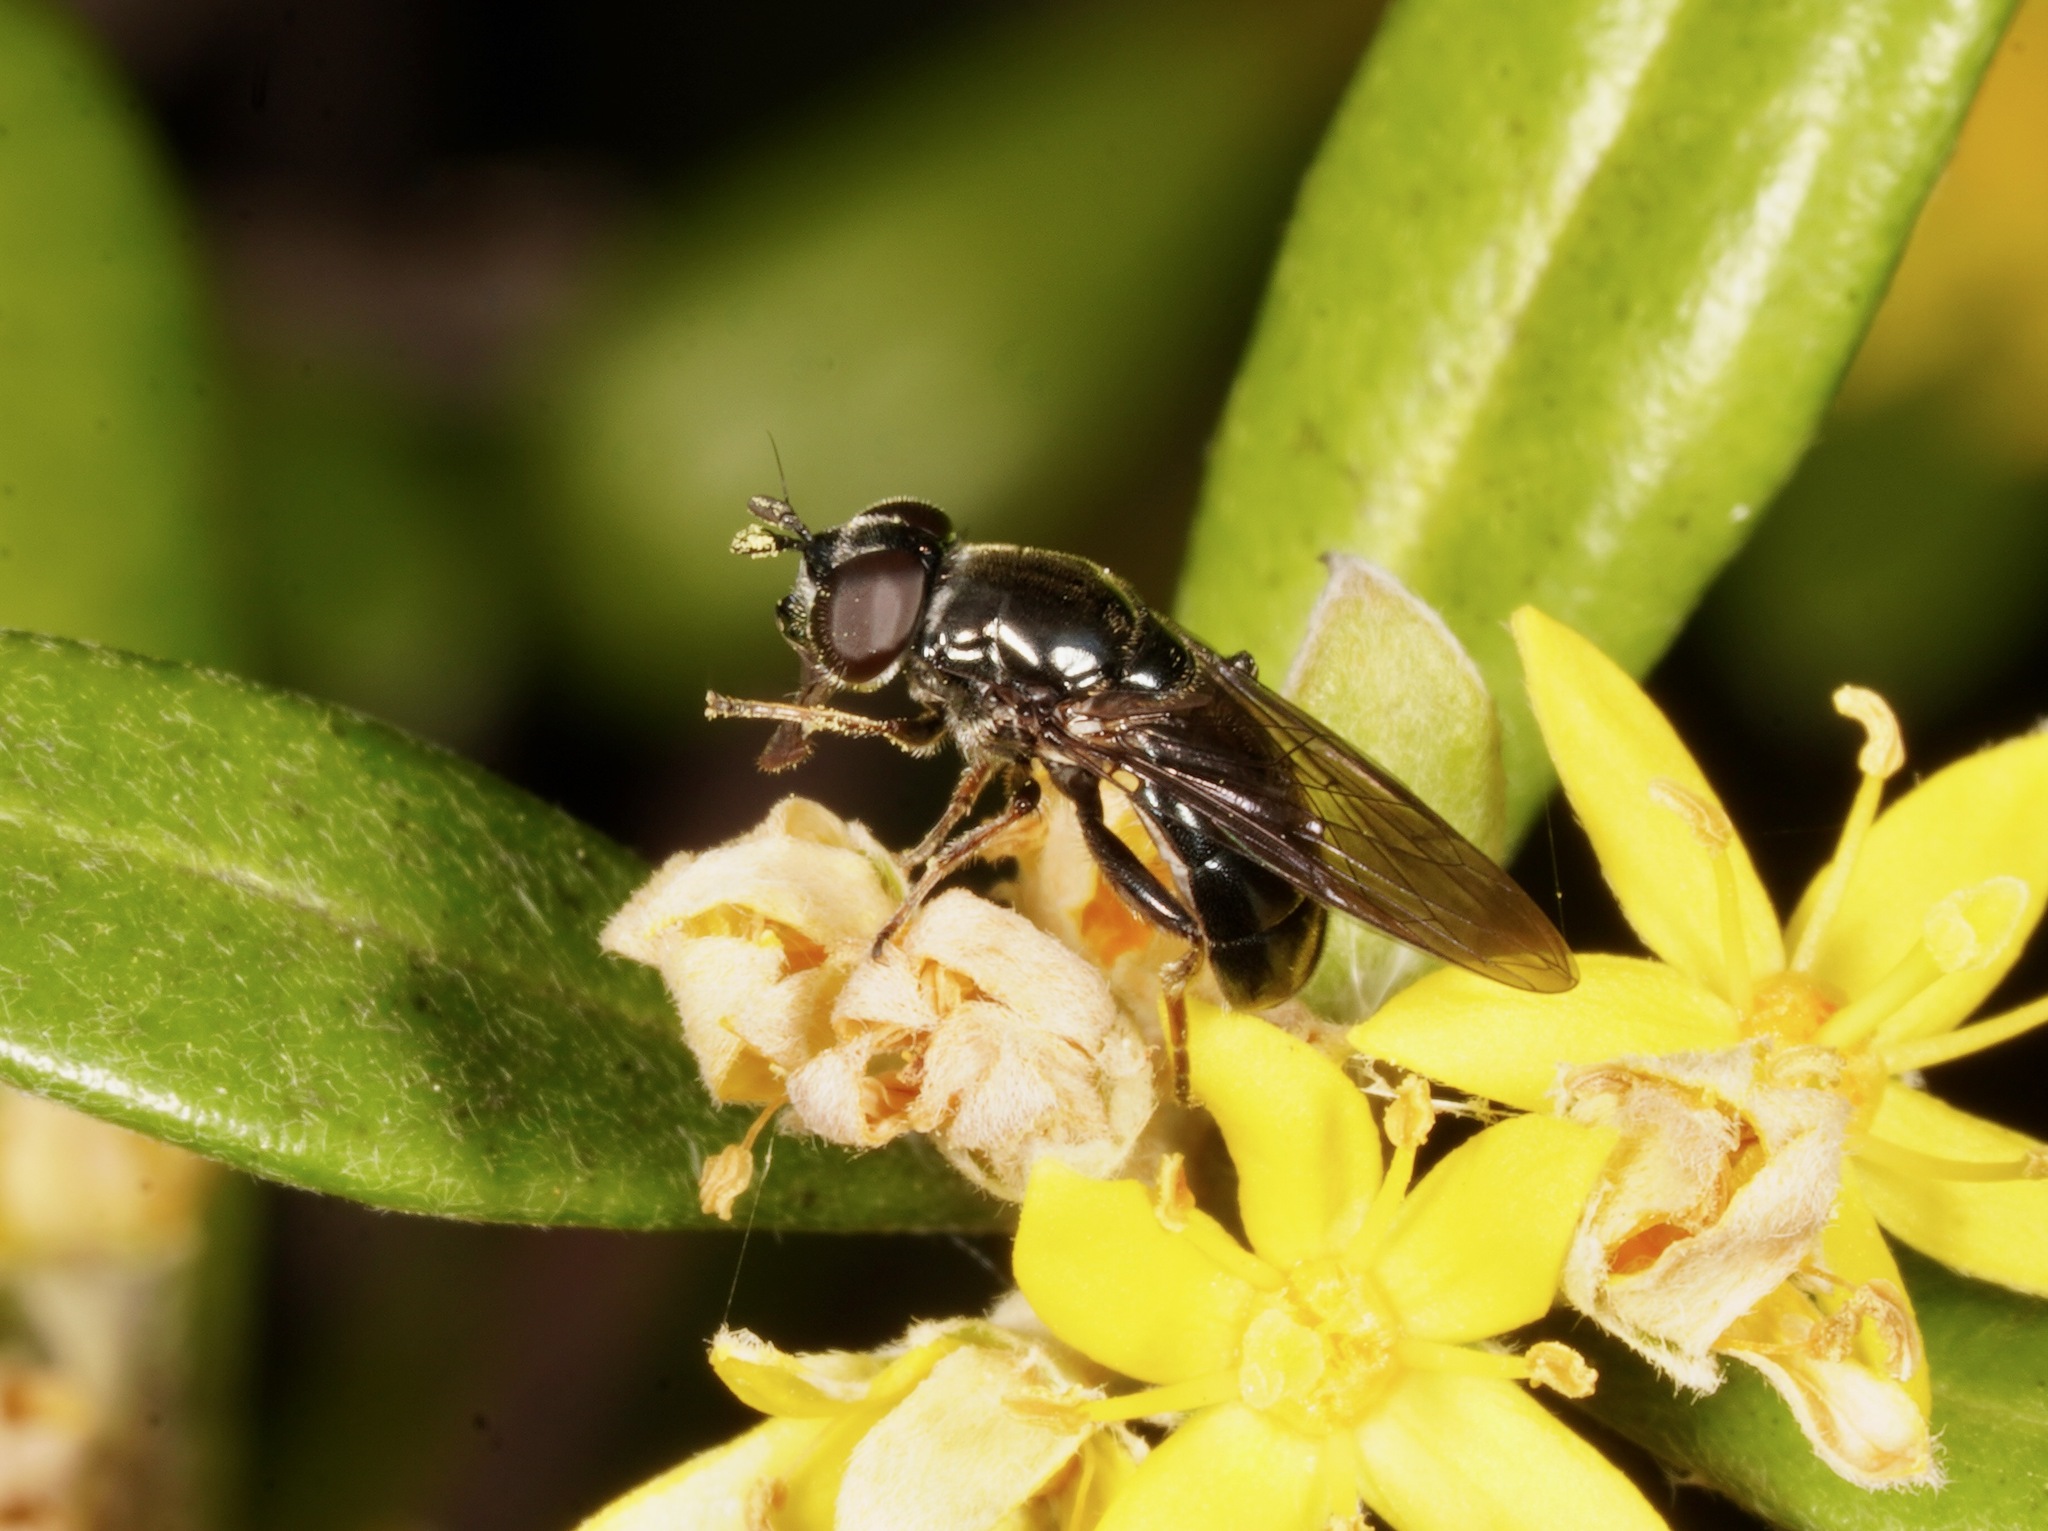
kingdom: Animalia
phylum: Arthropoda
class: Insecta
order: Diptera
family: Syrphidae
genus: Psilota
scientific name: Psilota decessum
